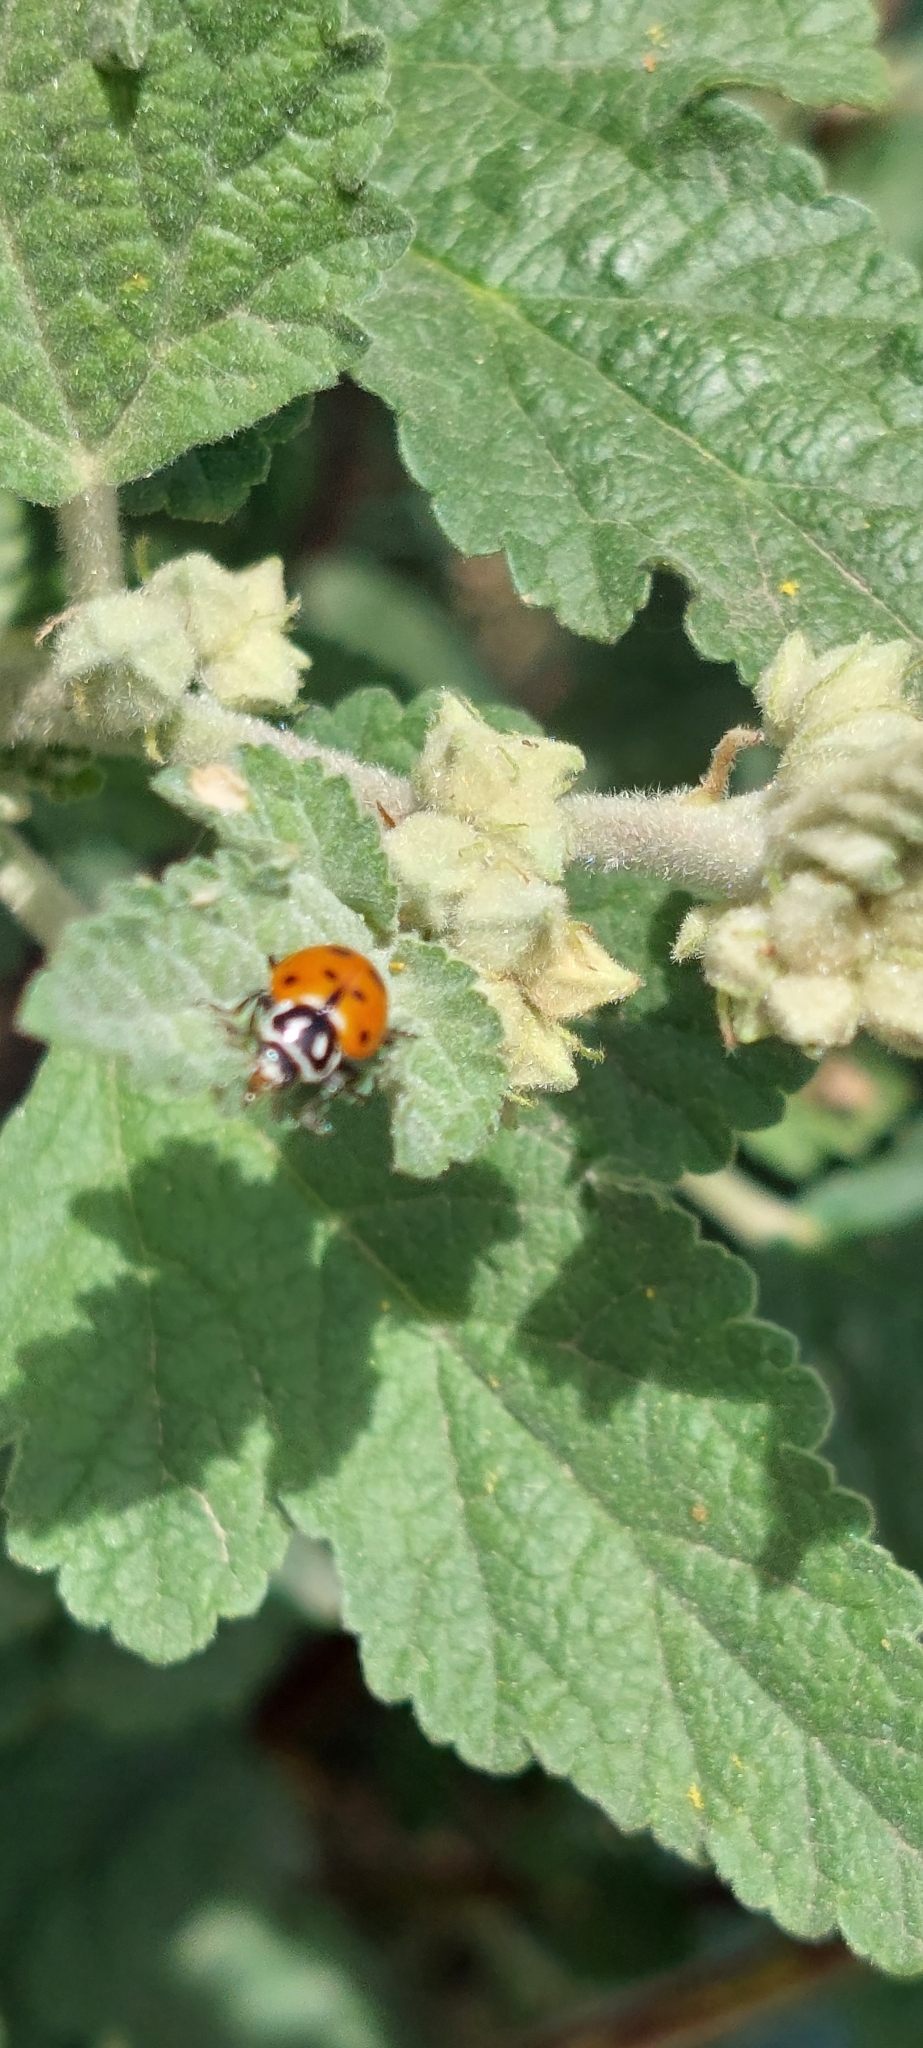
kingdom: Animalia
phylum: Arthropoda
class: Insecta
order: Coleoptera
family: Coccinellidae
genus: Hippodamia
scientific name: Hippodamia convergens
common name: Convergent lady beetle
